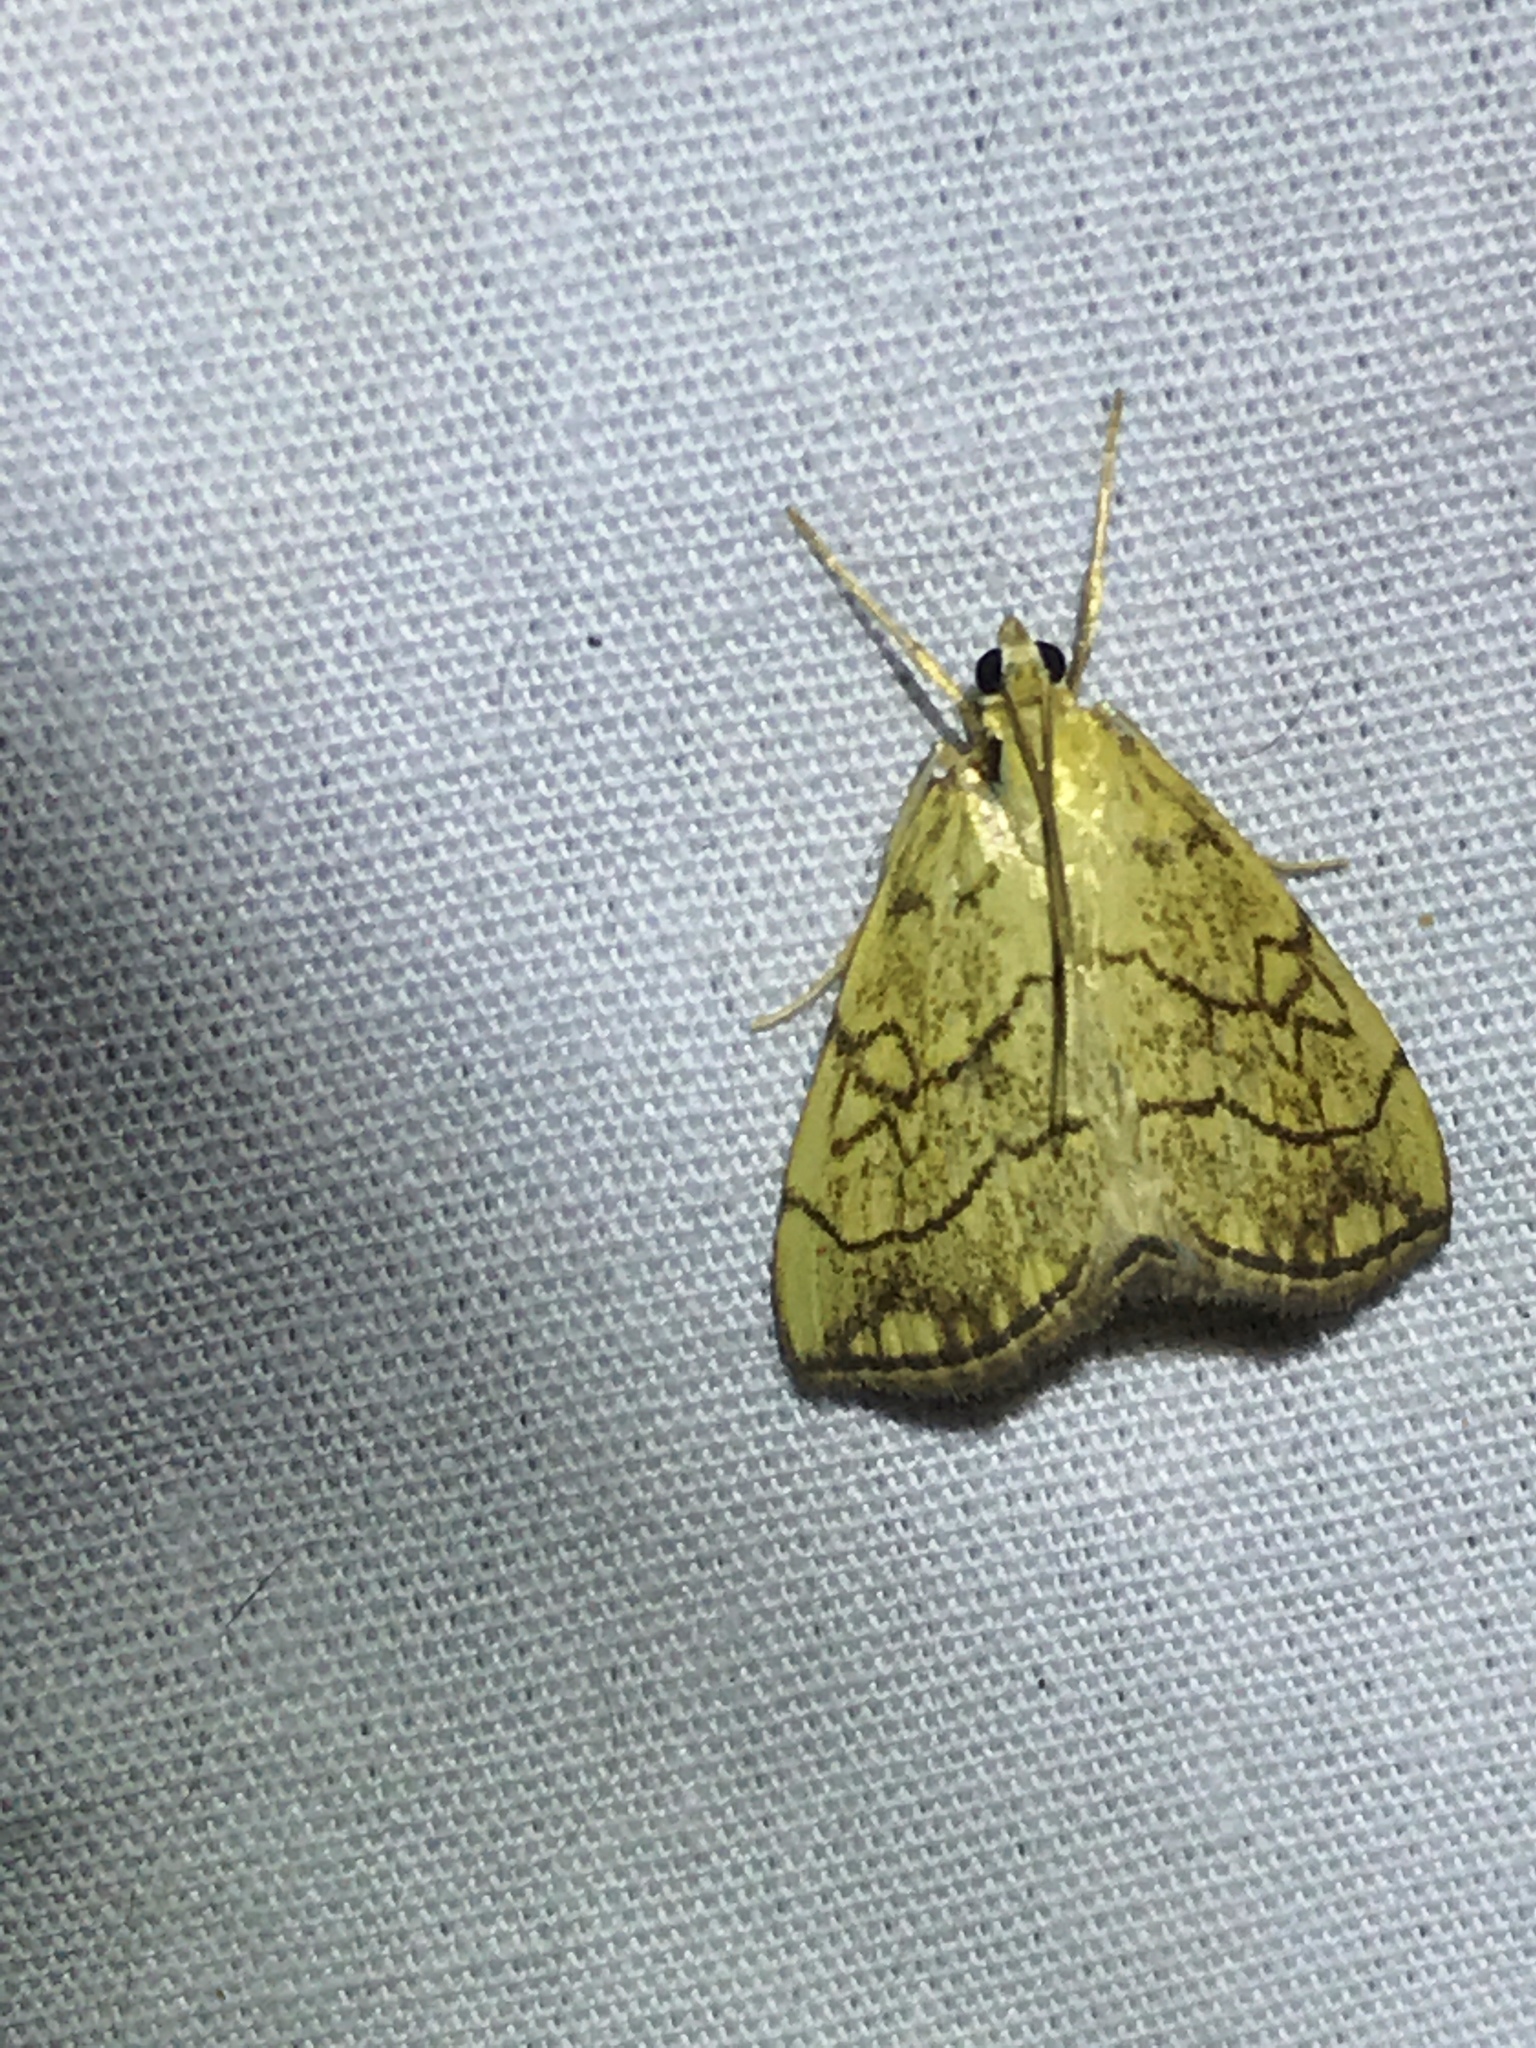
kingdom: Animalia
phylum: Arthropoda
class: Insecta
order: Lepidoptera
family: Crambidae
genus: Evergestis
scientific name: Evergestis pallidata
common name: Chequered pearl
